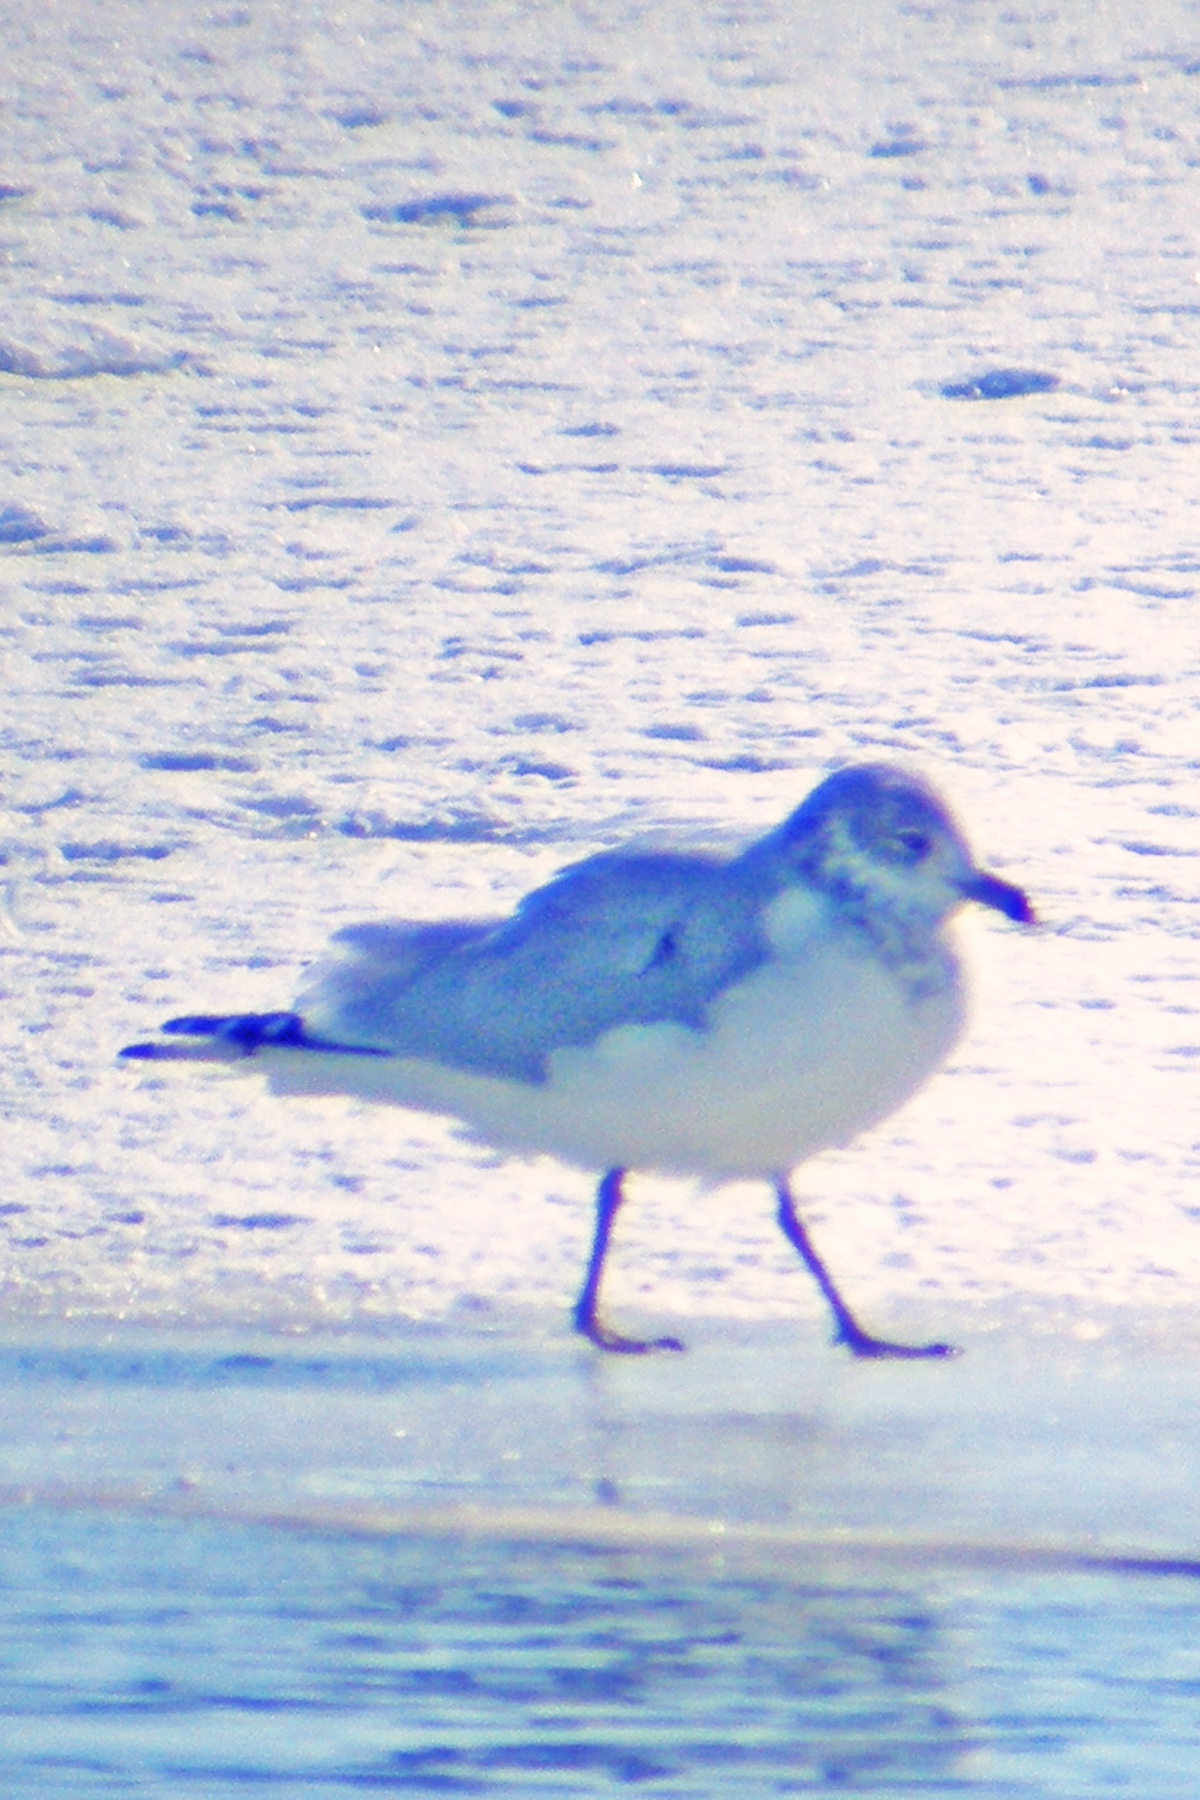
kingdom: Animalia
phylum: Chordata
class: Aves
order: Charadriiformes
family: Laridae
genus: Larus
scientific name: Larus delawarensis
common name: Ring-billed gull
